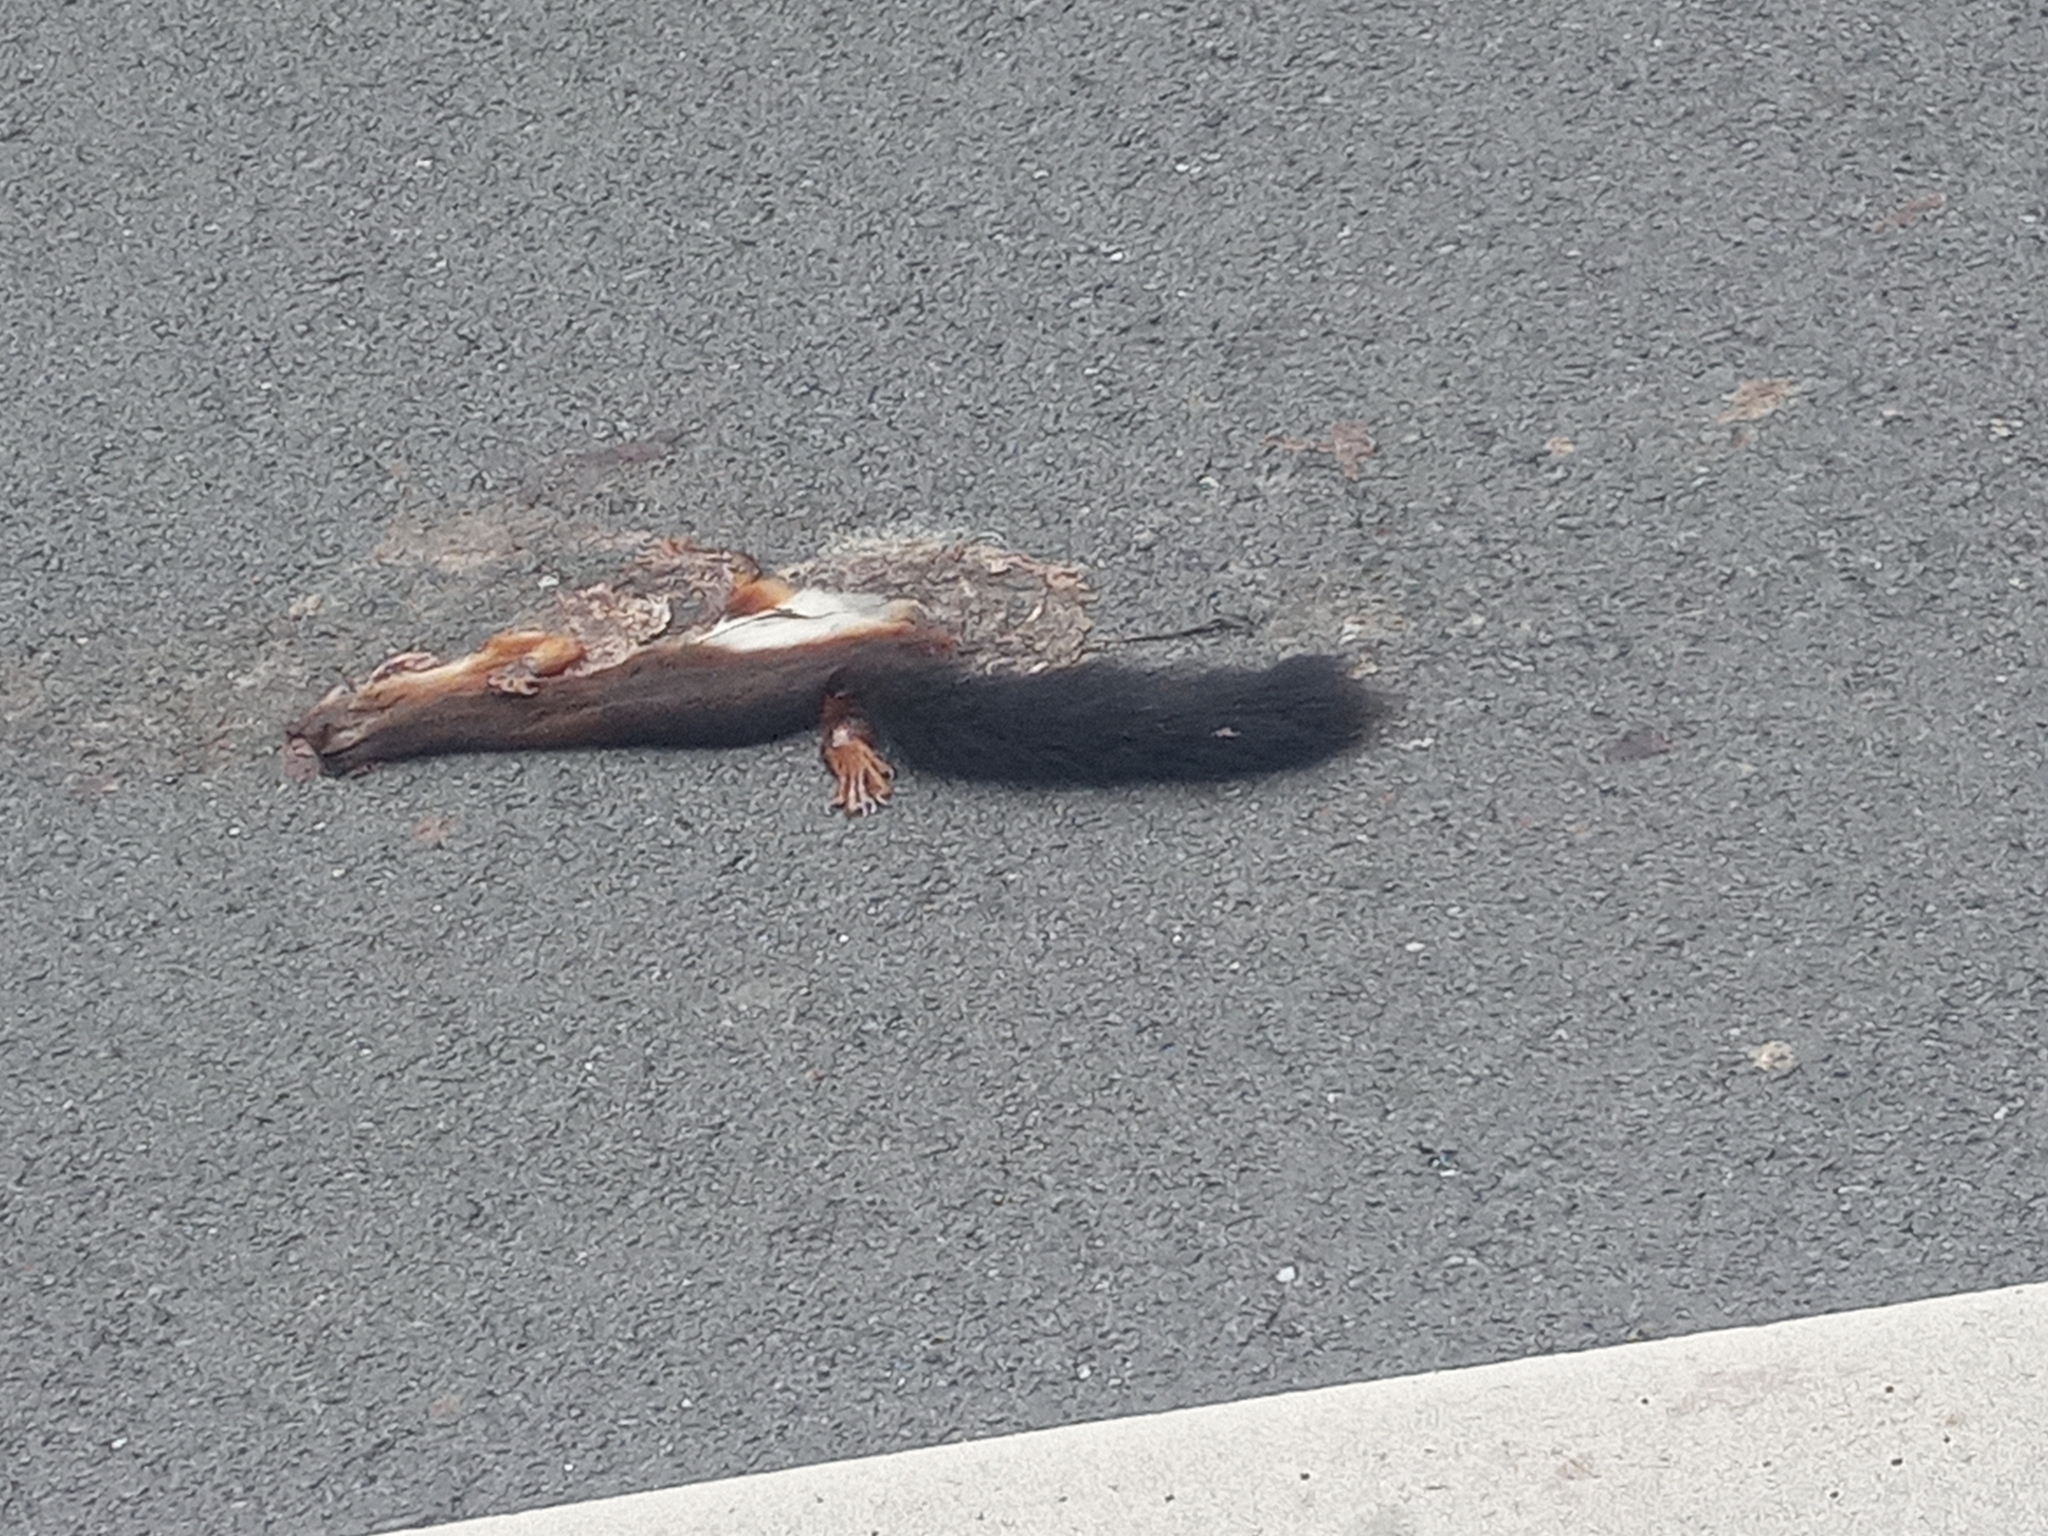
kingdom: Animalia
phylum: Chordata
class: Mammalia
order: Rodentia
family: Sciuridae
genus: Sciurus
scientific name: Sciurus vulgaris
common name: Eurasian red squirrel
